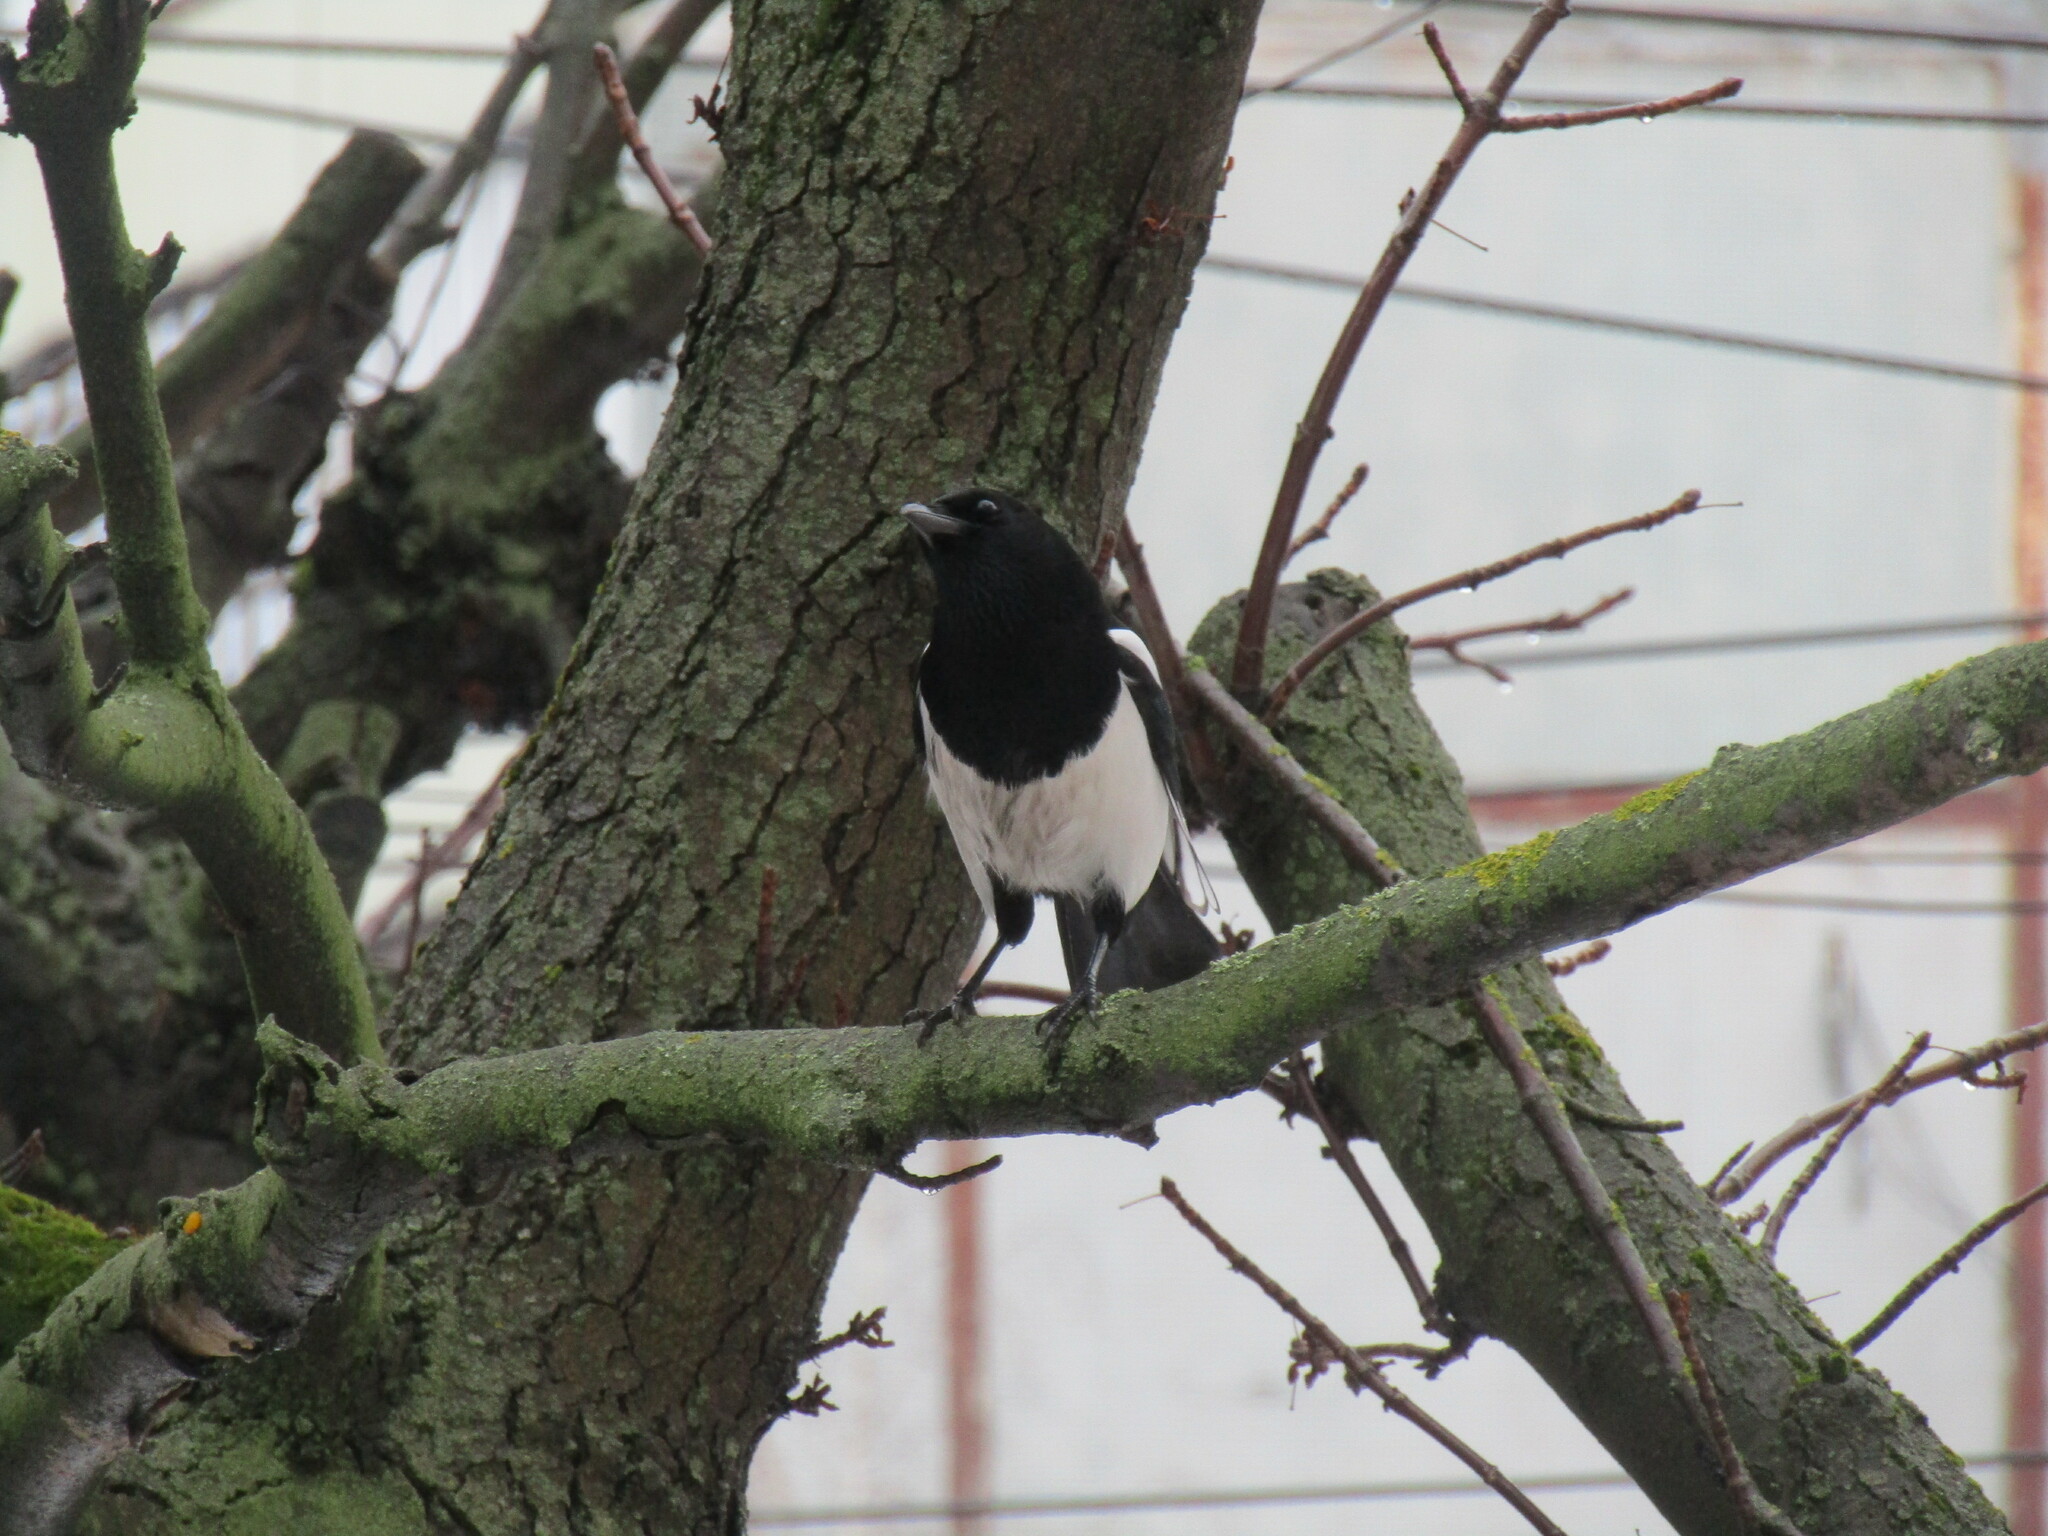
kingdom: Animalia
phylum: Chordata
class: Aves
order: Passeriformes
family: Corvidae
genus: Pica
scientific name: Pica pica
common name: Eurasian magpie
